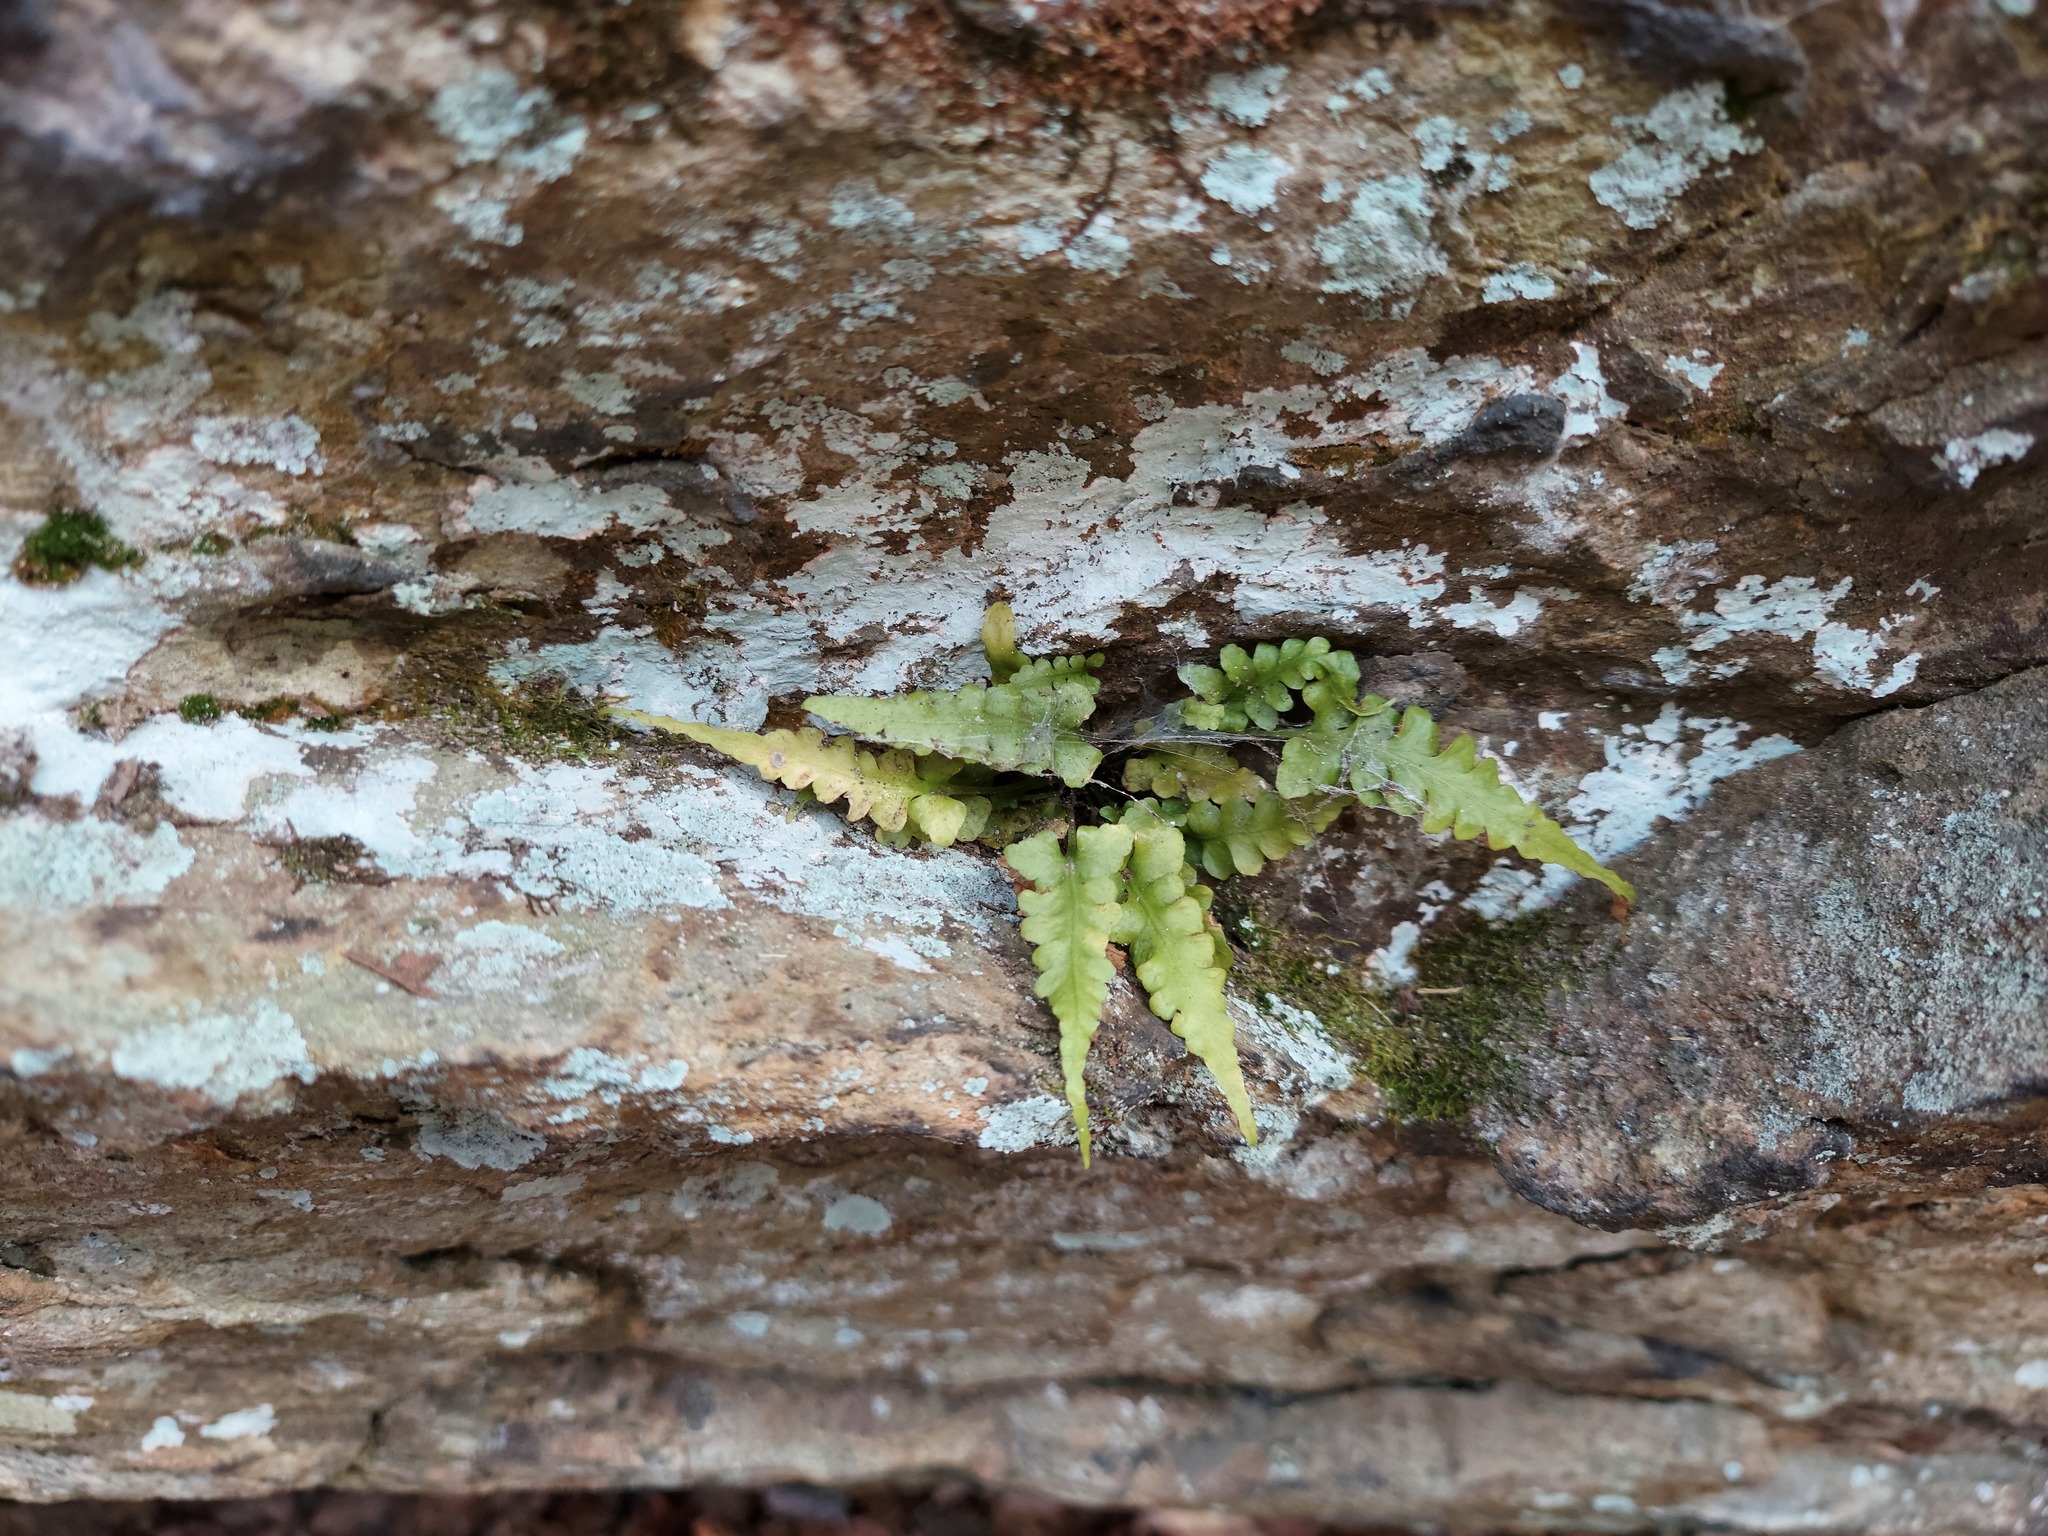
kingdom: Plantae
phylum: Tracheophyta
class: Polypodiopsida
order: Polypodiales
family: Aspleniaceae
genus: Asplenium
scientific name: Asplenium pinnatifidum
